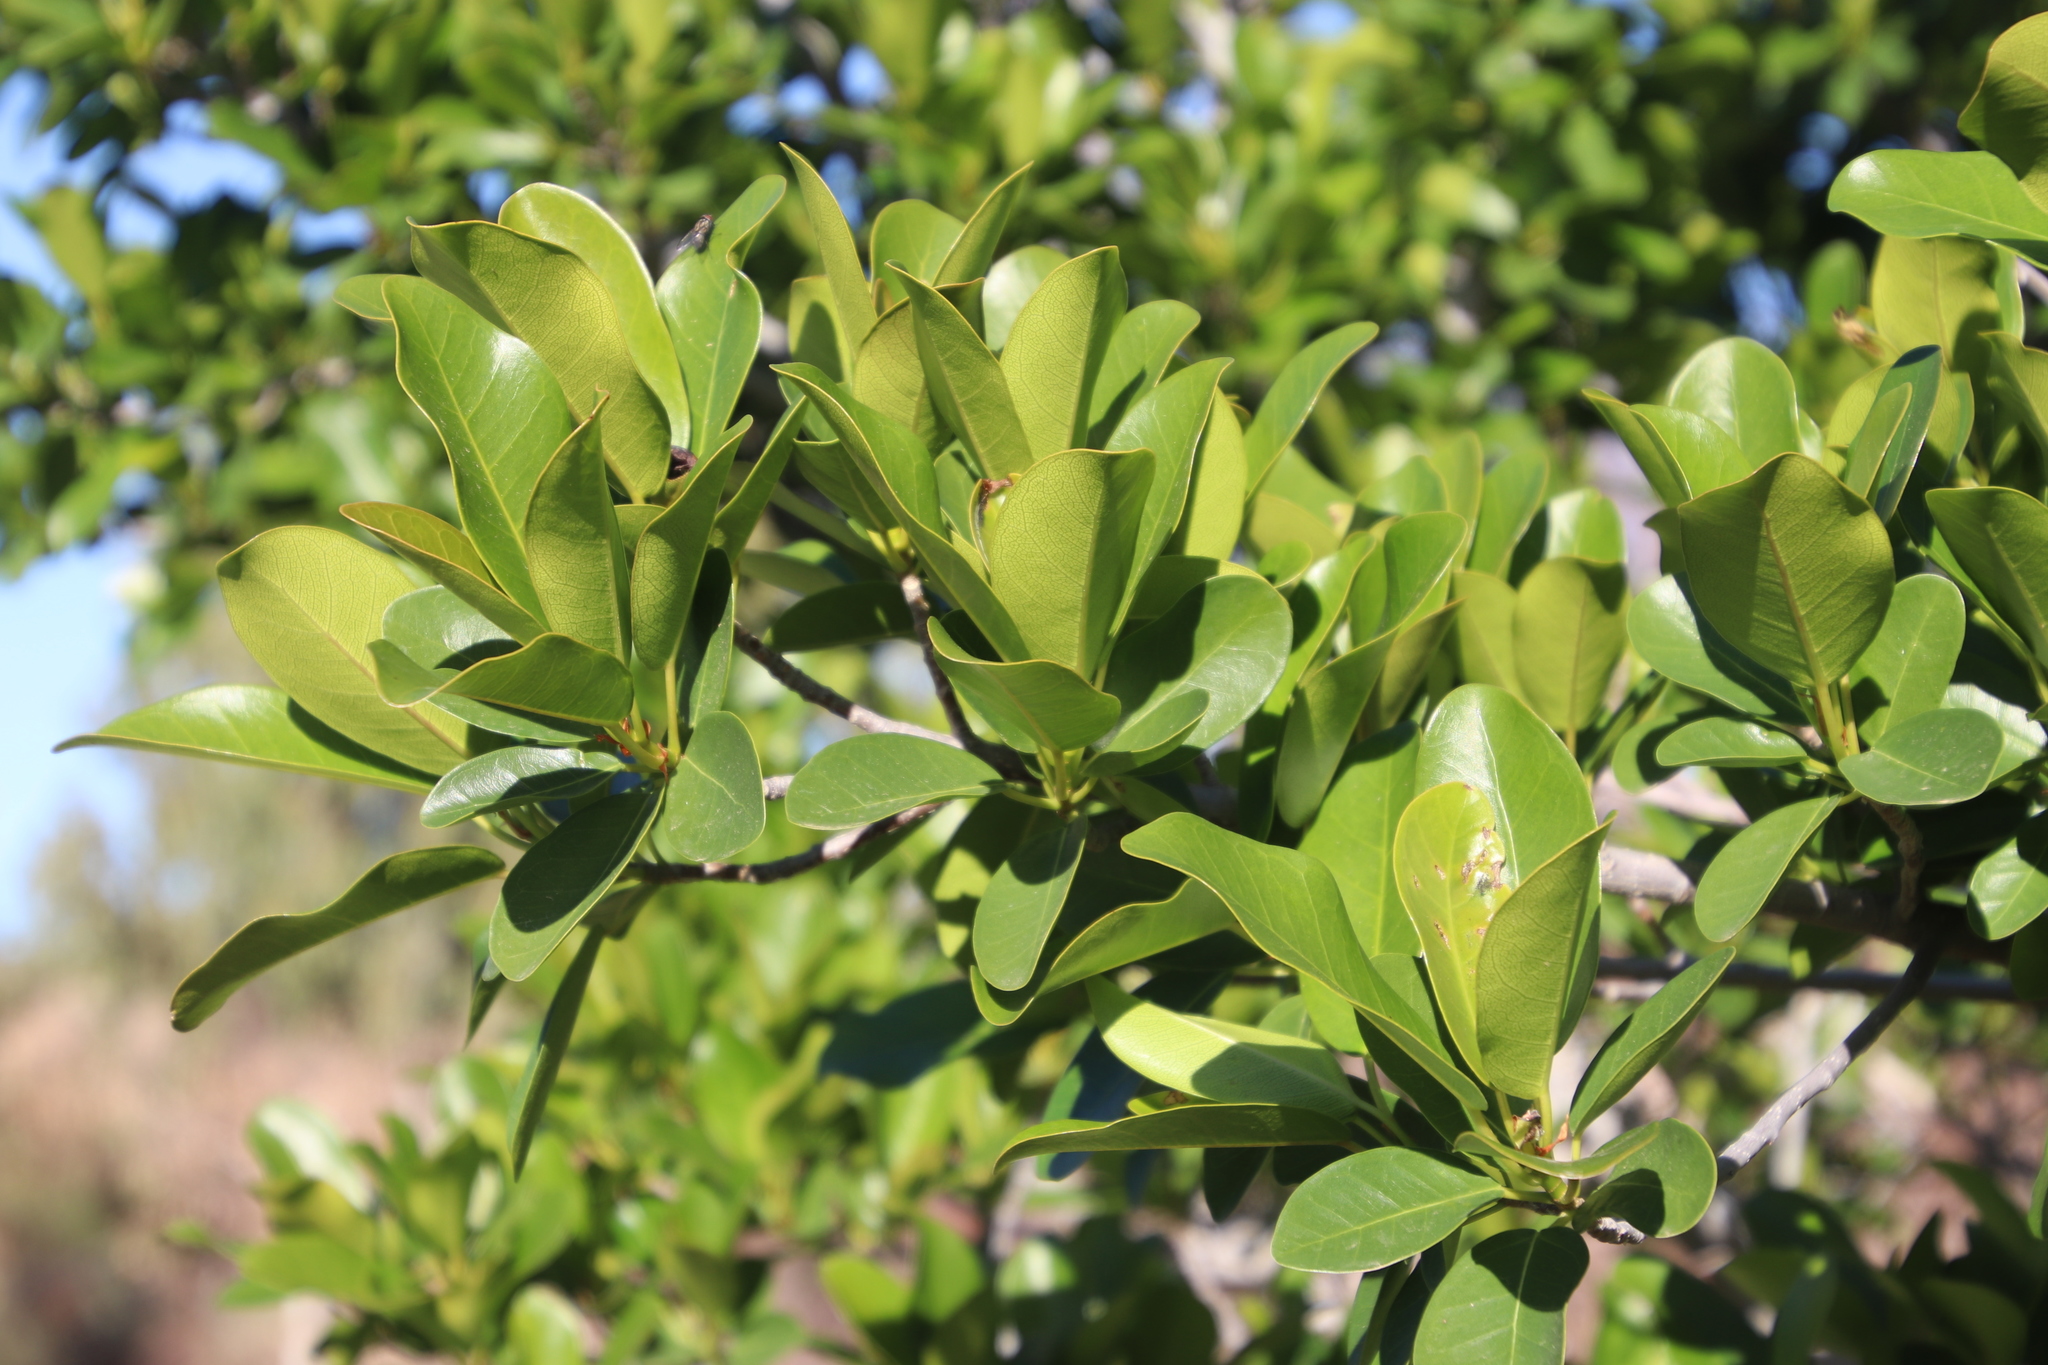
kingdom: Plantae
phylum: Tracheophyta
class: Magnoliopsida
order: Rosales
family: Moraceae
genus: Ficus
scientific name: Ficus thonningii
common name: Fig
